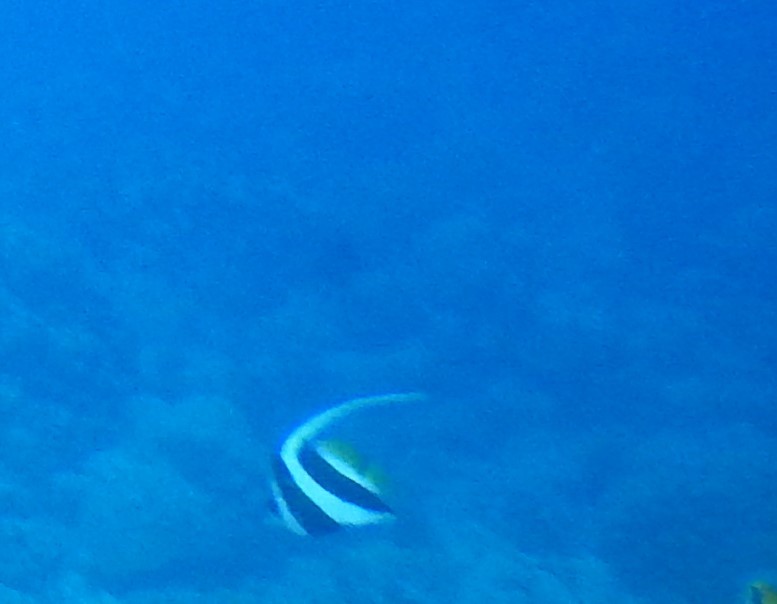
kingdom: Animalia
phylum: Chordata
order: Perciformes
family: Chaetodontidae
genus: Heniochus
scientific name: Heniochus acuminatus
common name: Pennant coralfish
